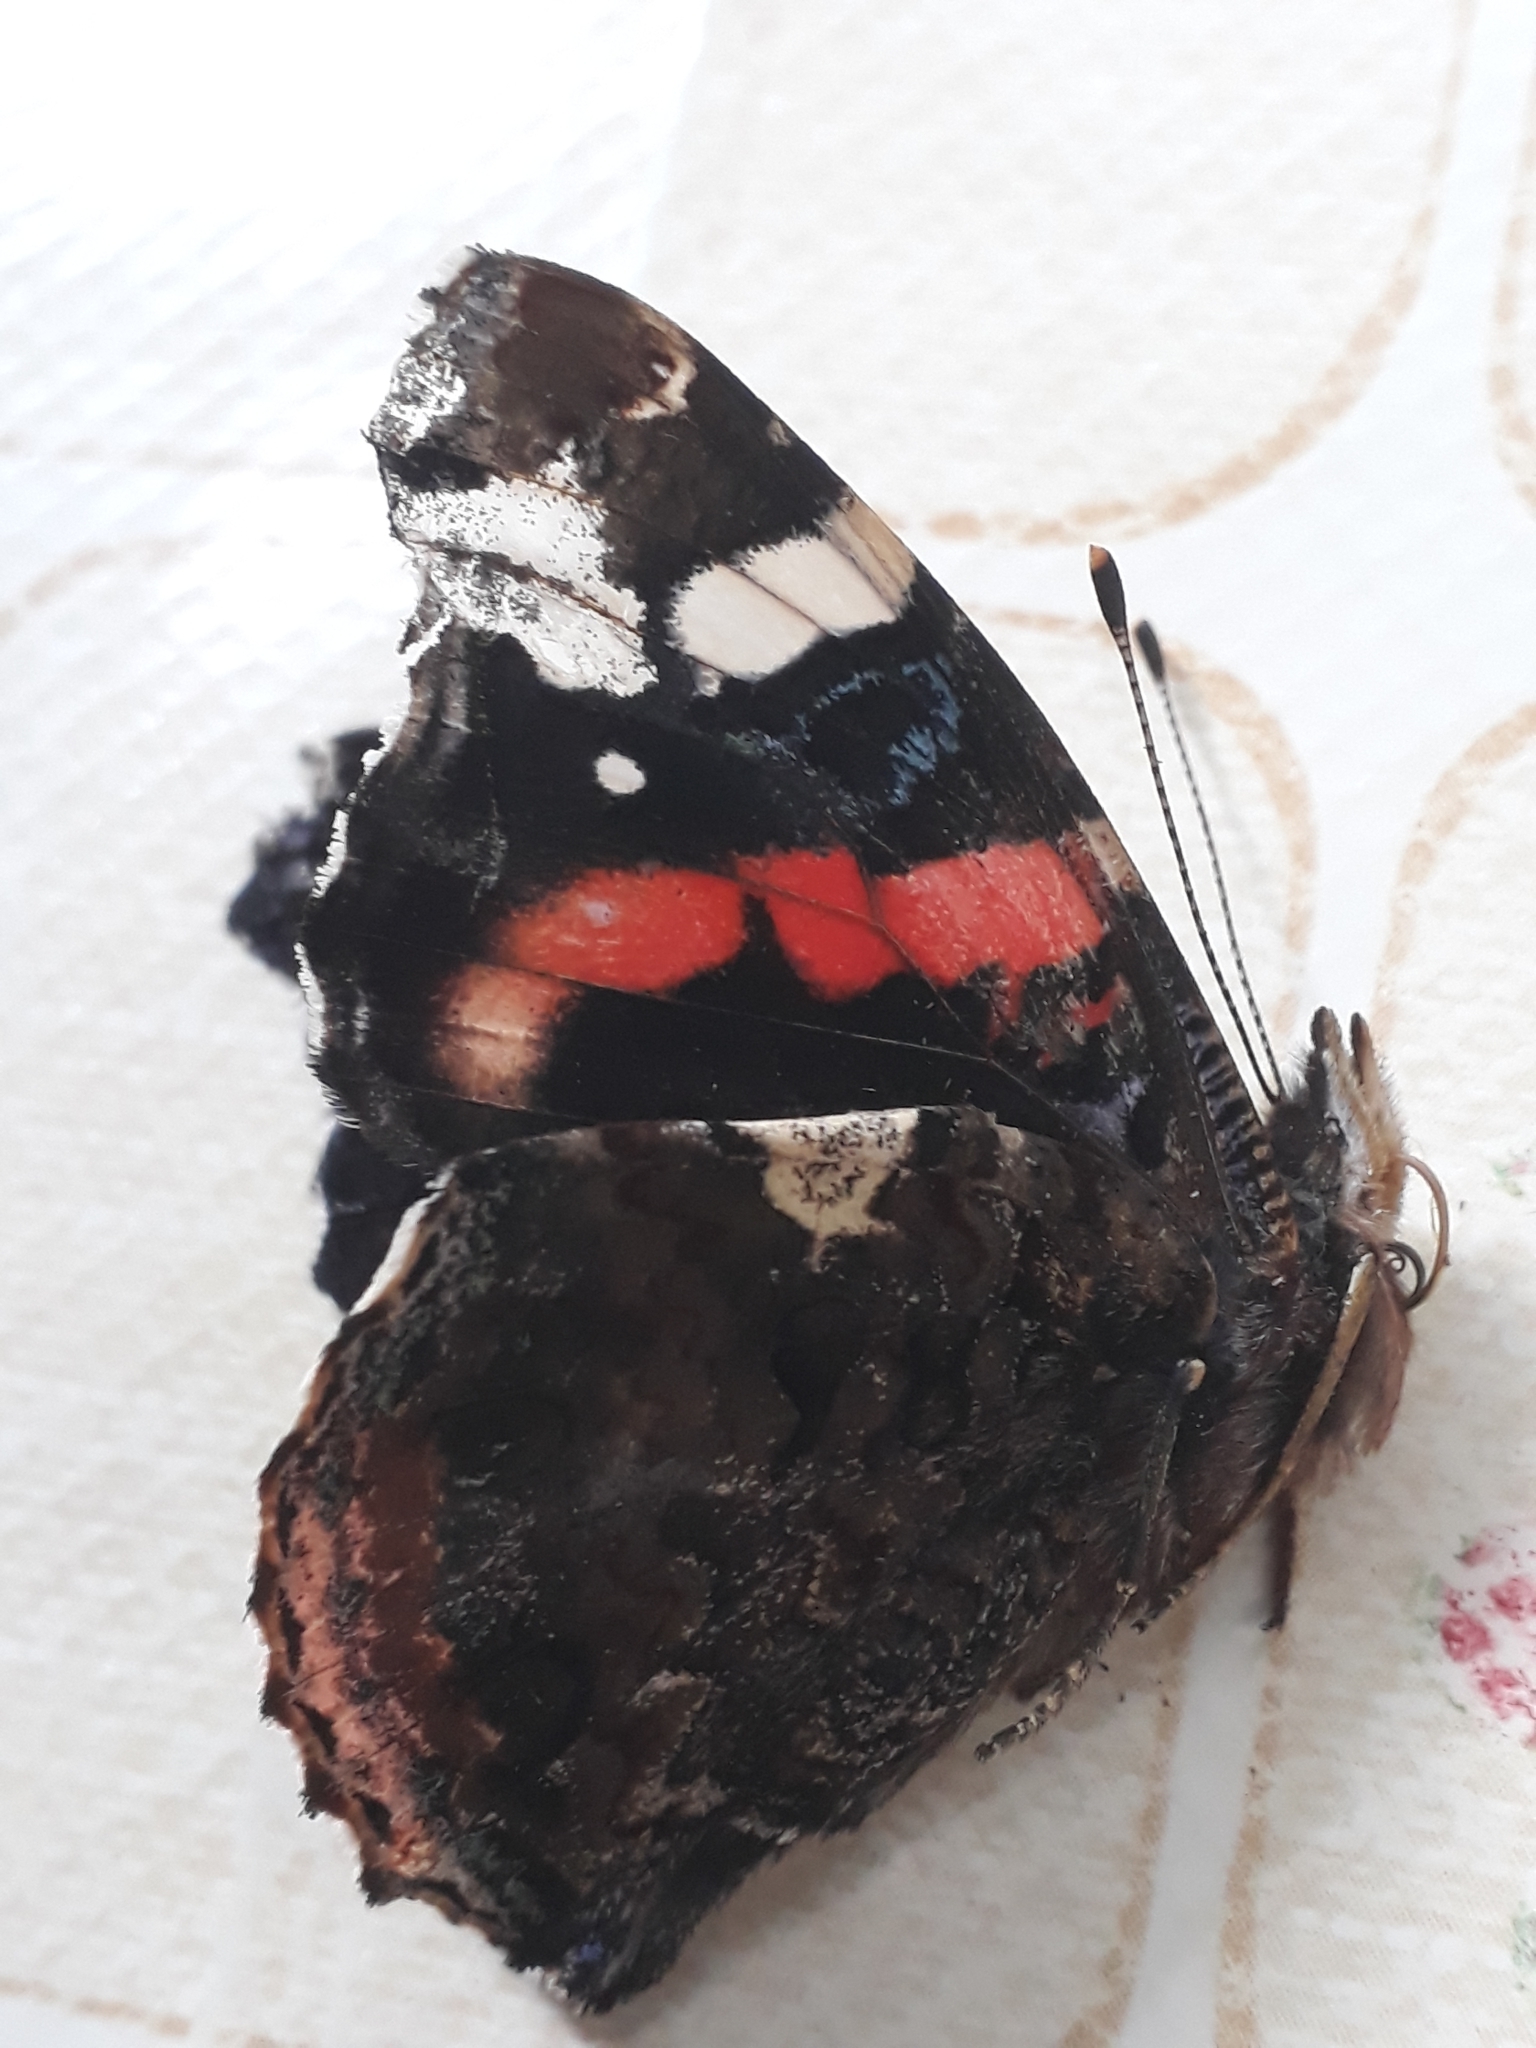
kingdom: Animalia
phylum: Arthropoda
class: Insecta
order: Lepidoptera
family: Nymphalidae
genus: Vanessa
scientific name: Vanessa atalanta
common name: Red admiral
